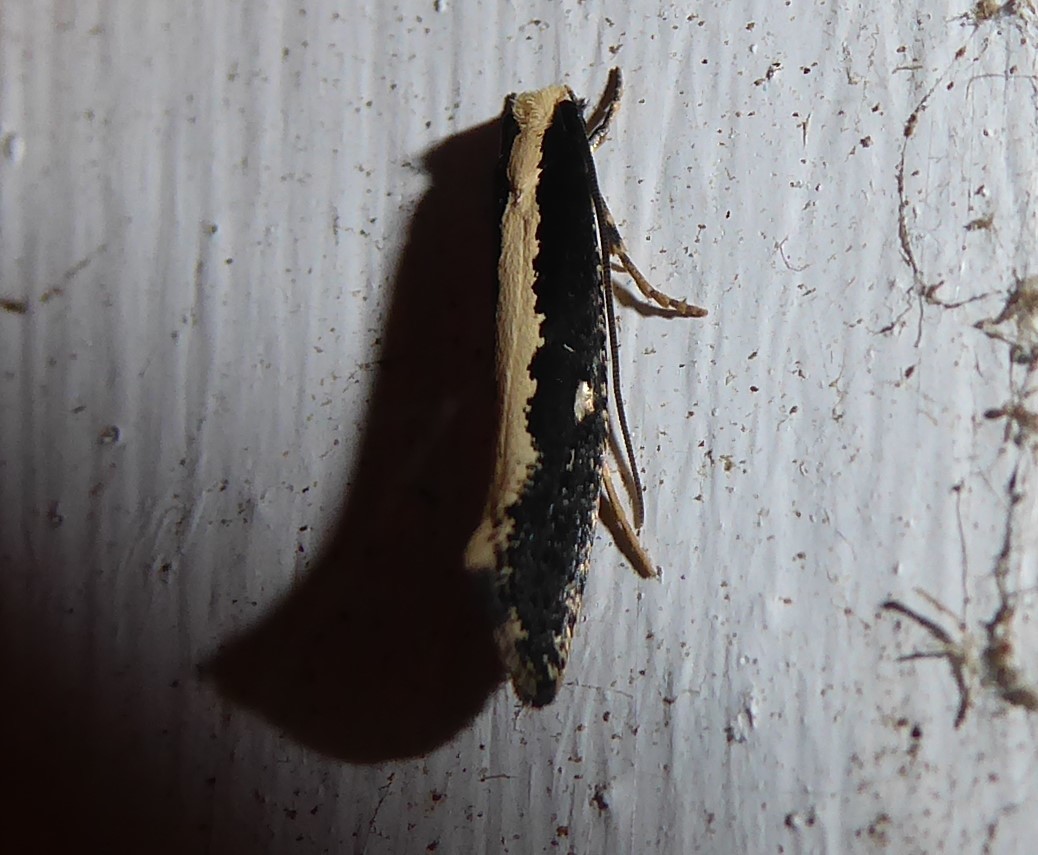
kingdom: Animalia
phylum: Arthropoda
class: Insecta
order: Lepidoptera
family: Tineidae
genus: Monopis
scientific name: Monopis ethelella
